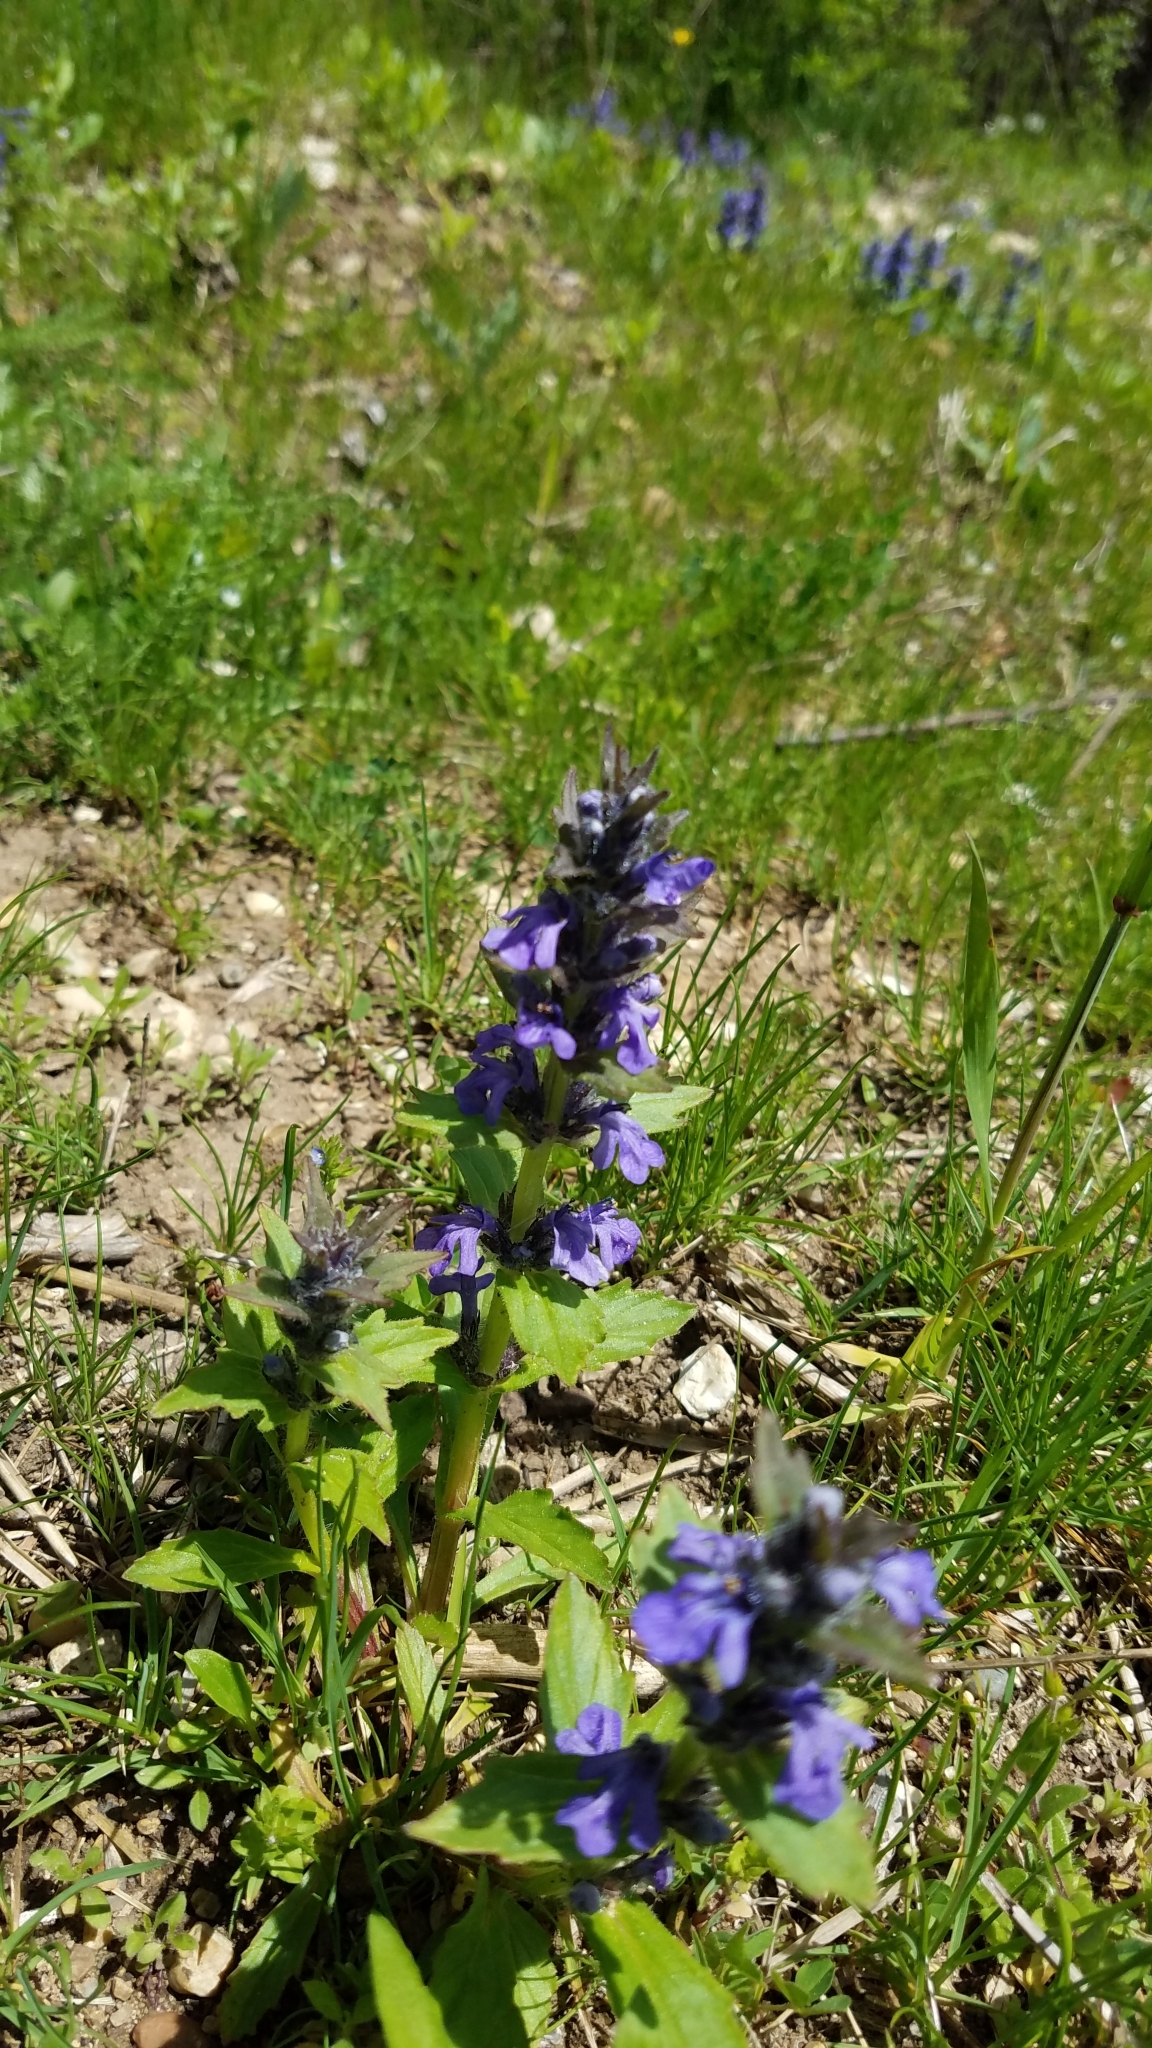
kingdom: Plantae
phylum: Tracheophyta
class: Magnoliopsida
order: Lamiales
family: Lamiaceae
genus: Ajuga
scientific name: Ajuga genevensis
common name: Blue bugle
